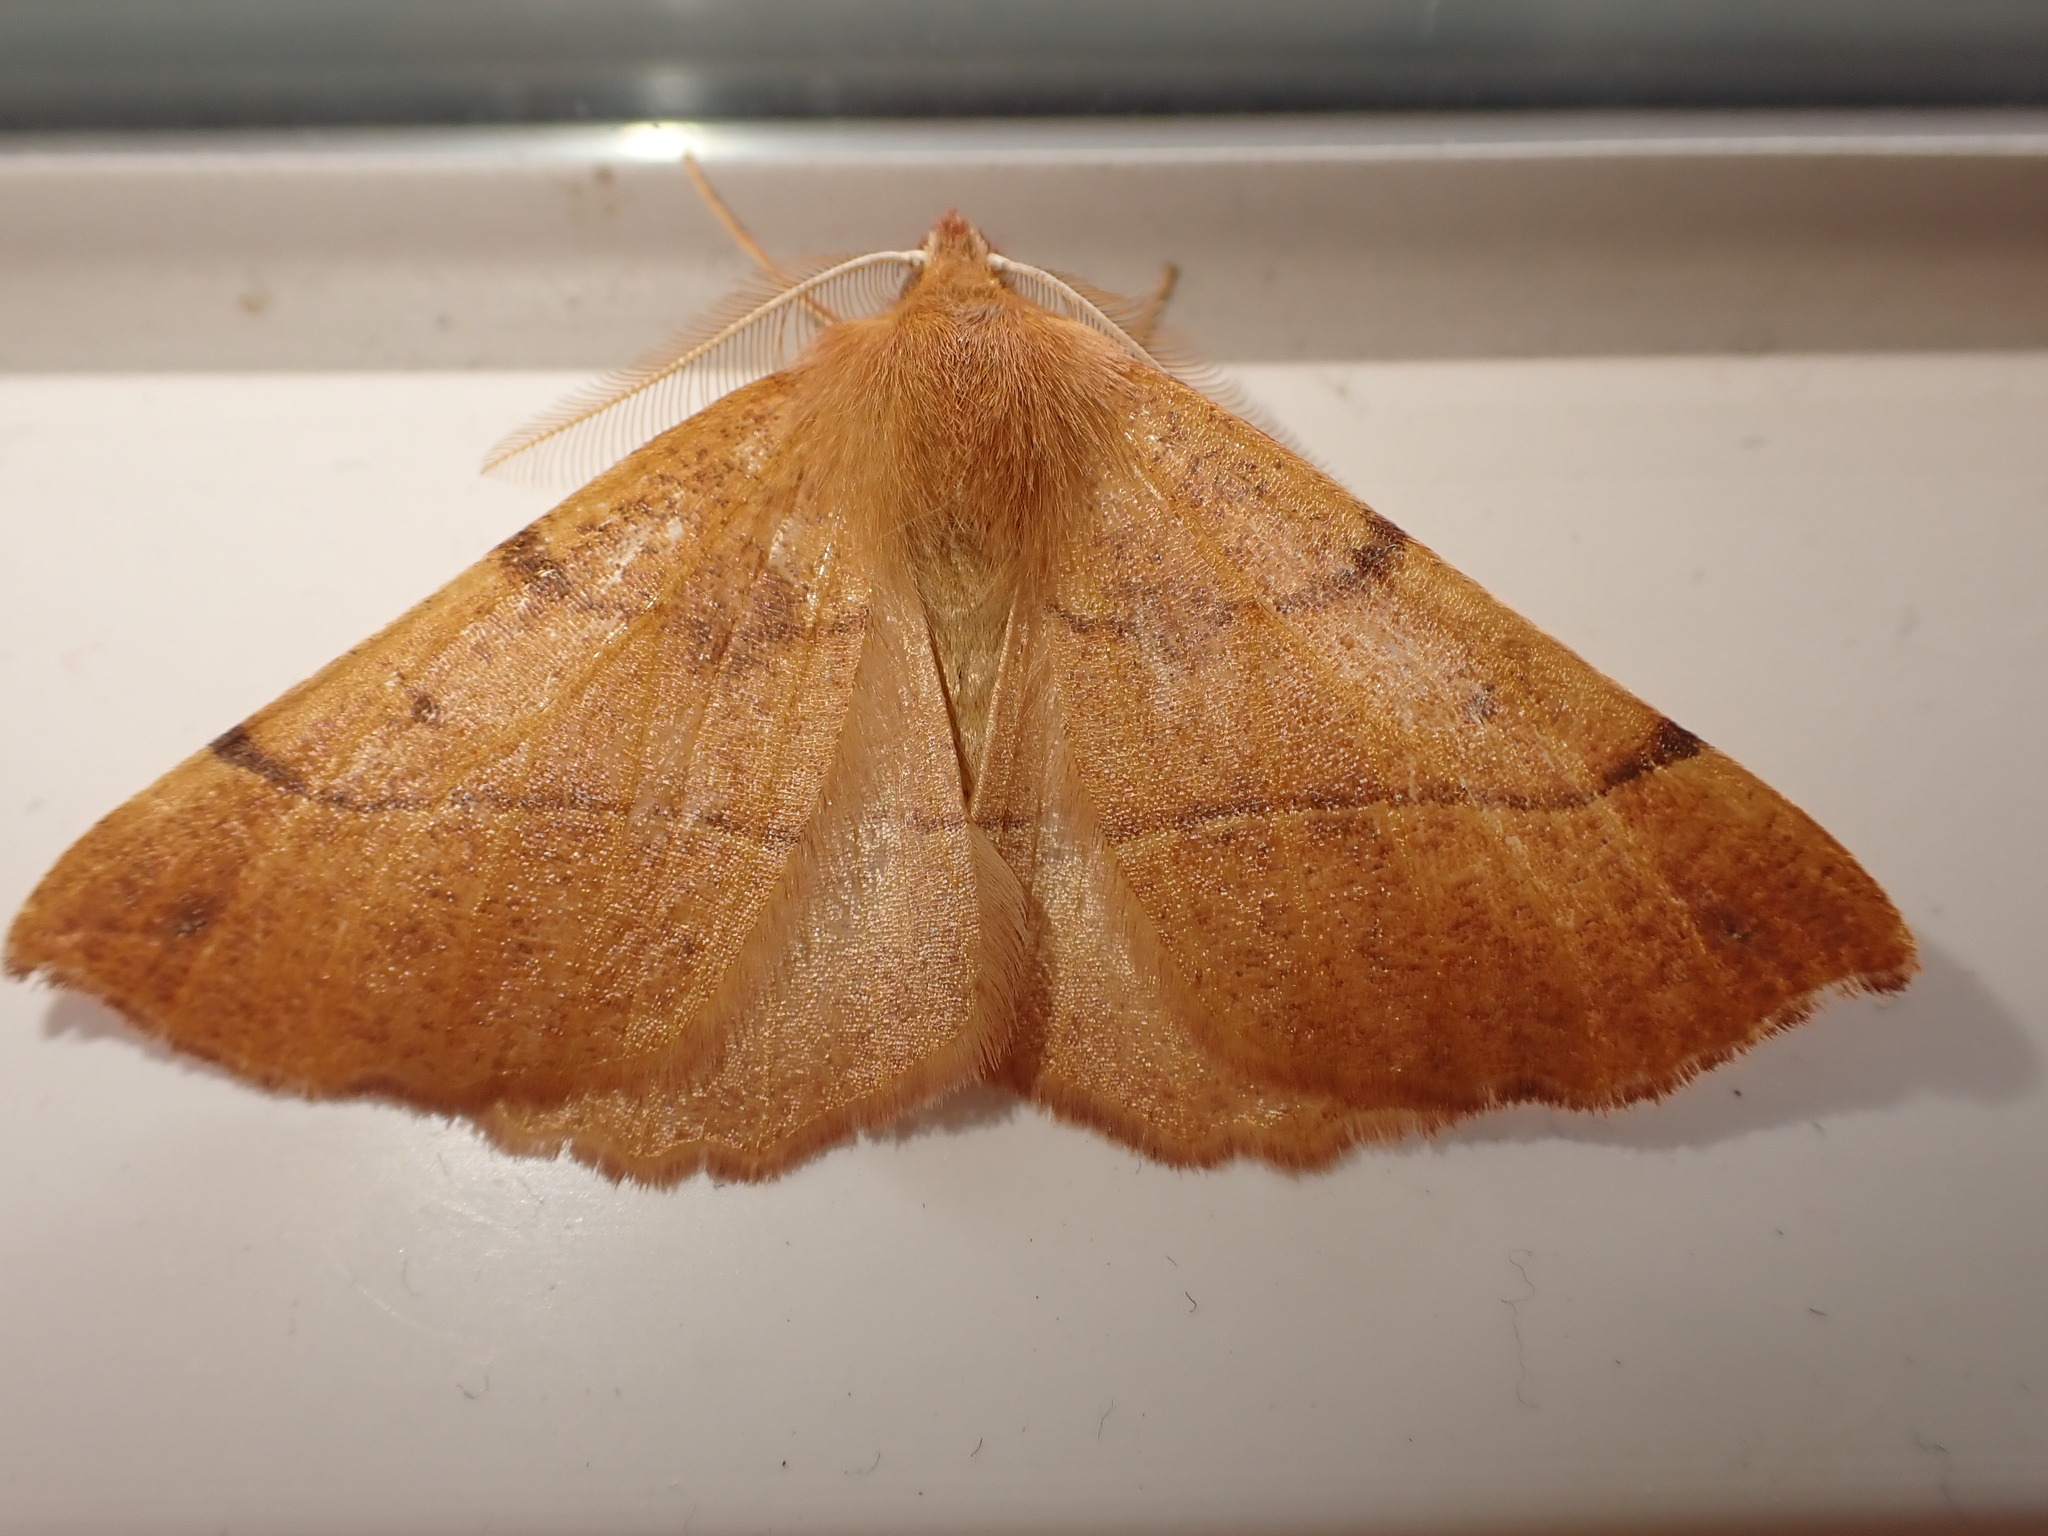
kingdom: Animalia
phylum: Arthropoda
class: Insecta
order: Lepidoptera
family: Geometridae
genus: Colotois
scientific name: Colotois pennaria
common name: Feathered thorn
